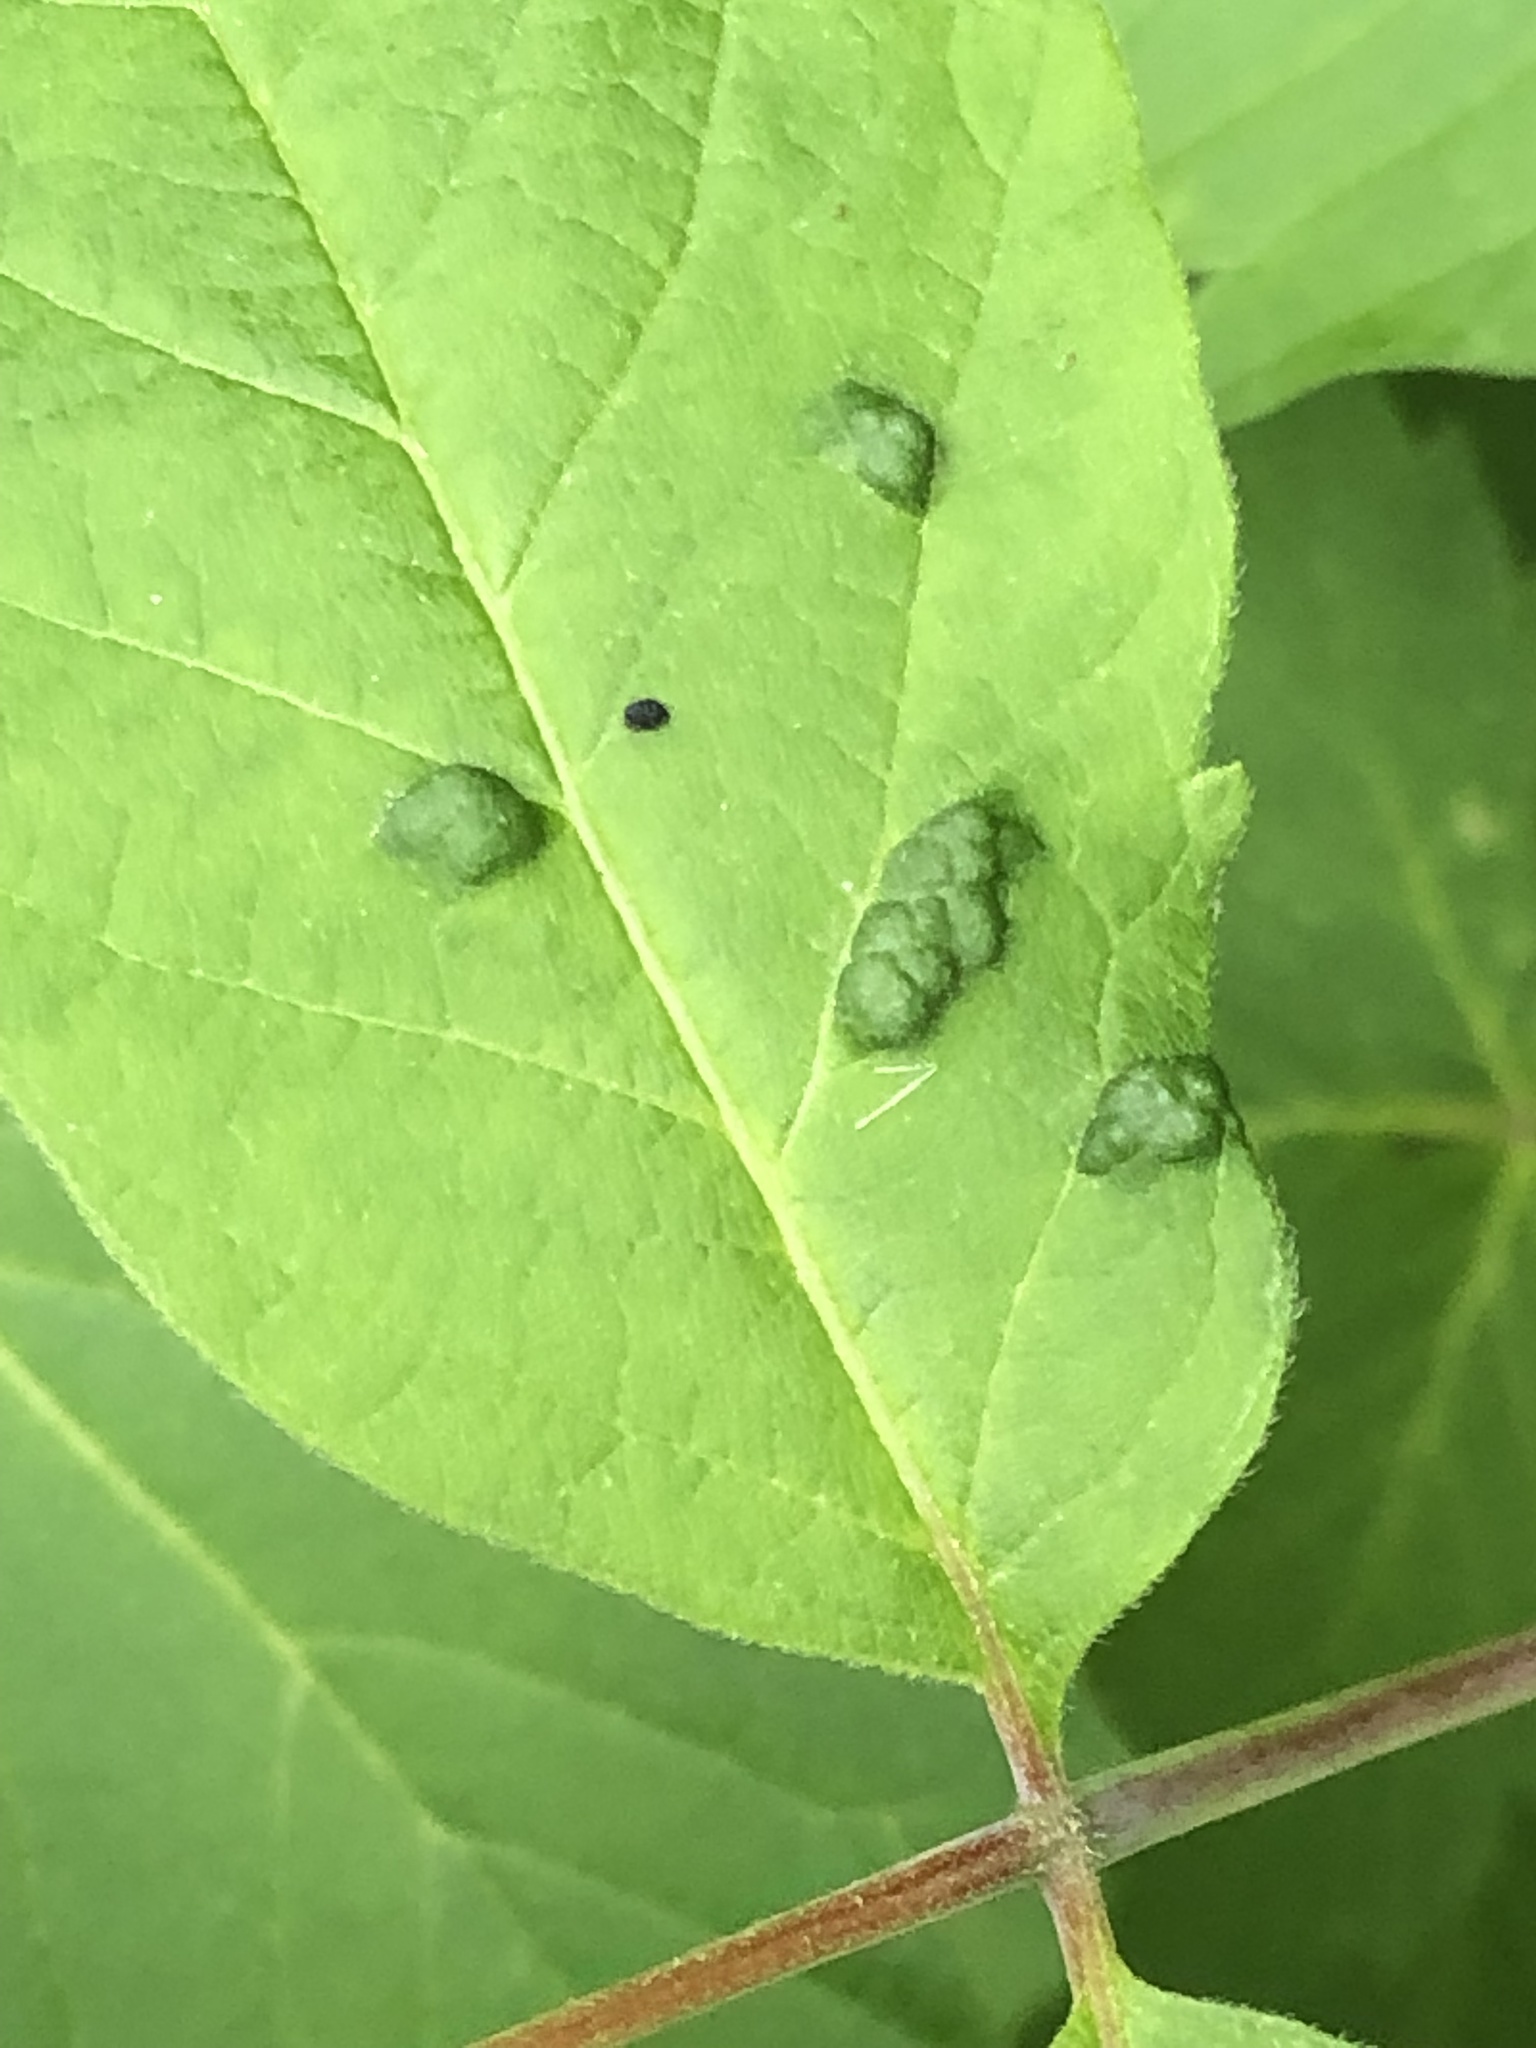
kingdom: Animalia
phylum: Arthropoda
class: Arachnida
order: Trombidiformes
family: Eriophyidae
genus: Aceria
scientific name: Aceria
